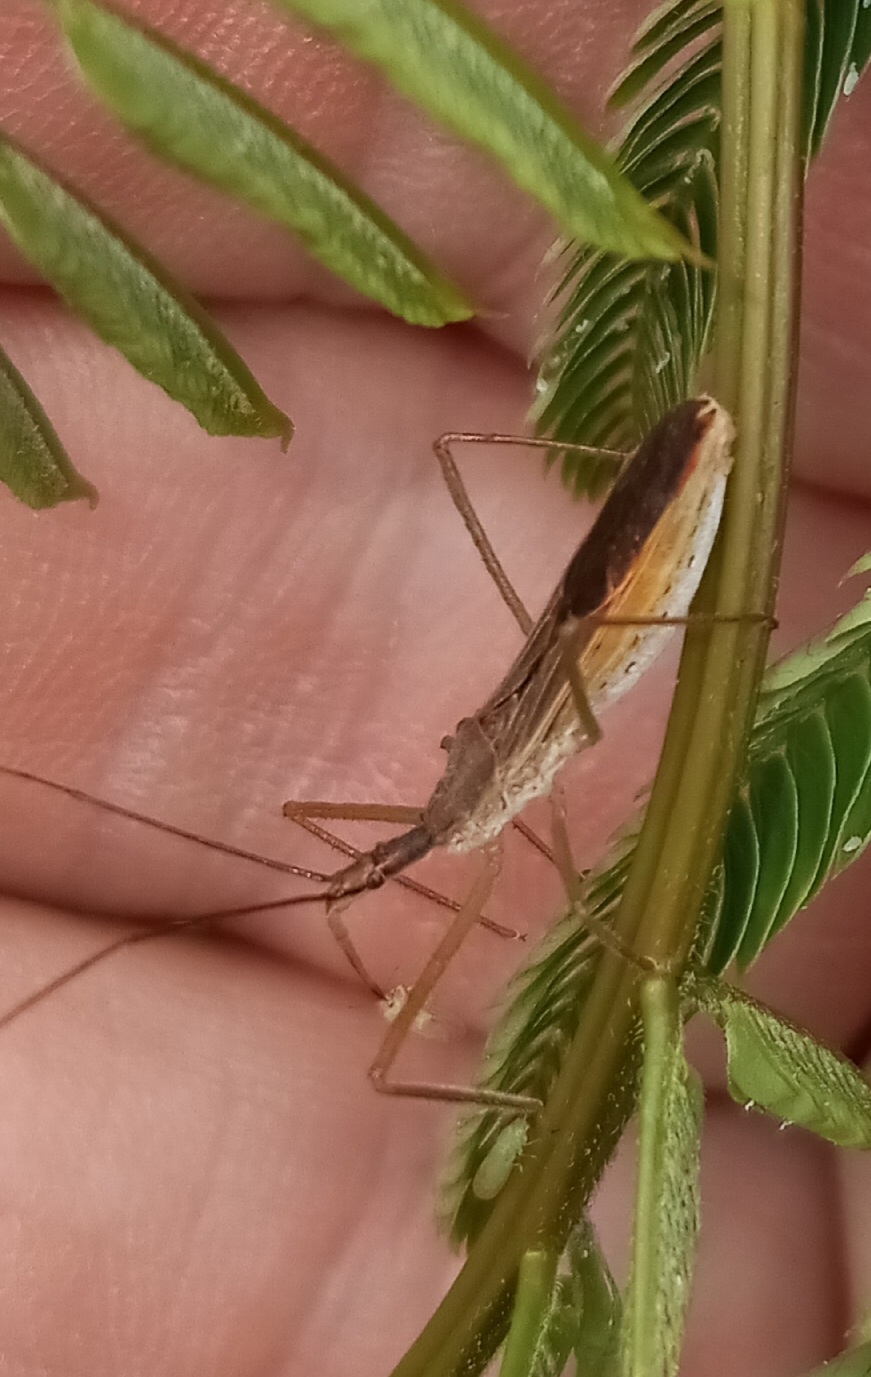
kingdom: Animalia
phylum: Arthropoda
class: Insecta
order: Hemiptera
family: Reduviidae
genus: Zelus
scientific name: Zelus cervicalis
